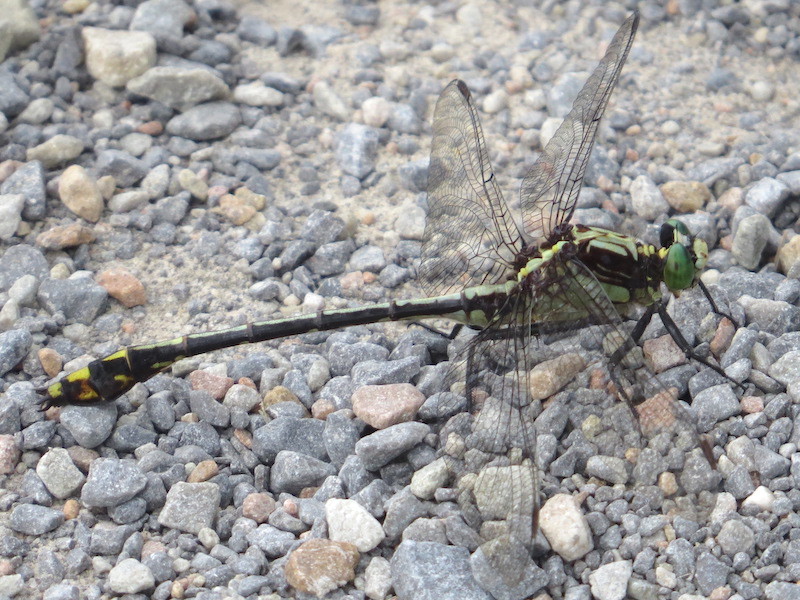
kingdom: Animalia
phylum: Arthropoda
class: Insecta
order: Odonata
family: Gomphidae
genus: Dromogomphus
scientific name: Dromogomphus spinosus
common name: Black-shouldered spinyleg
